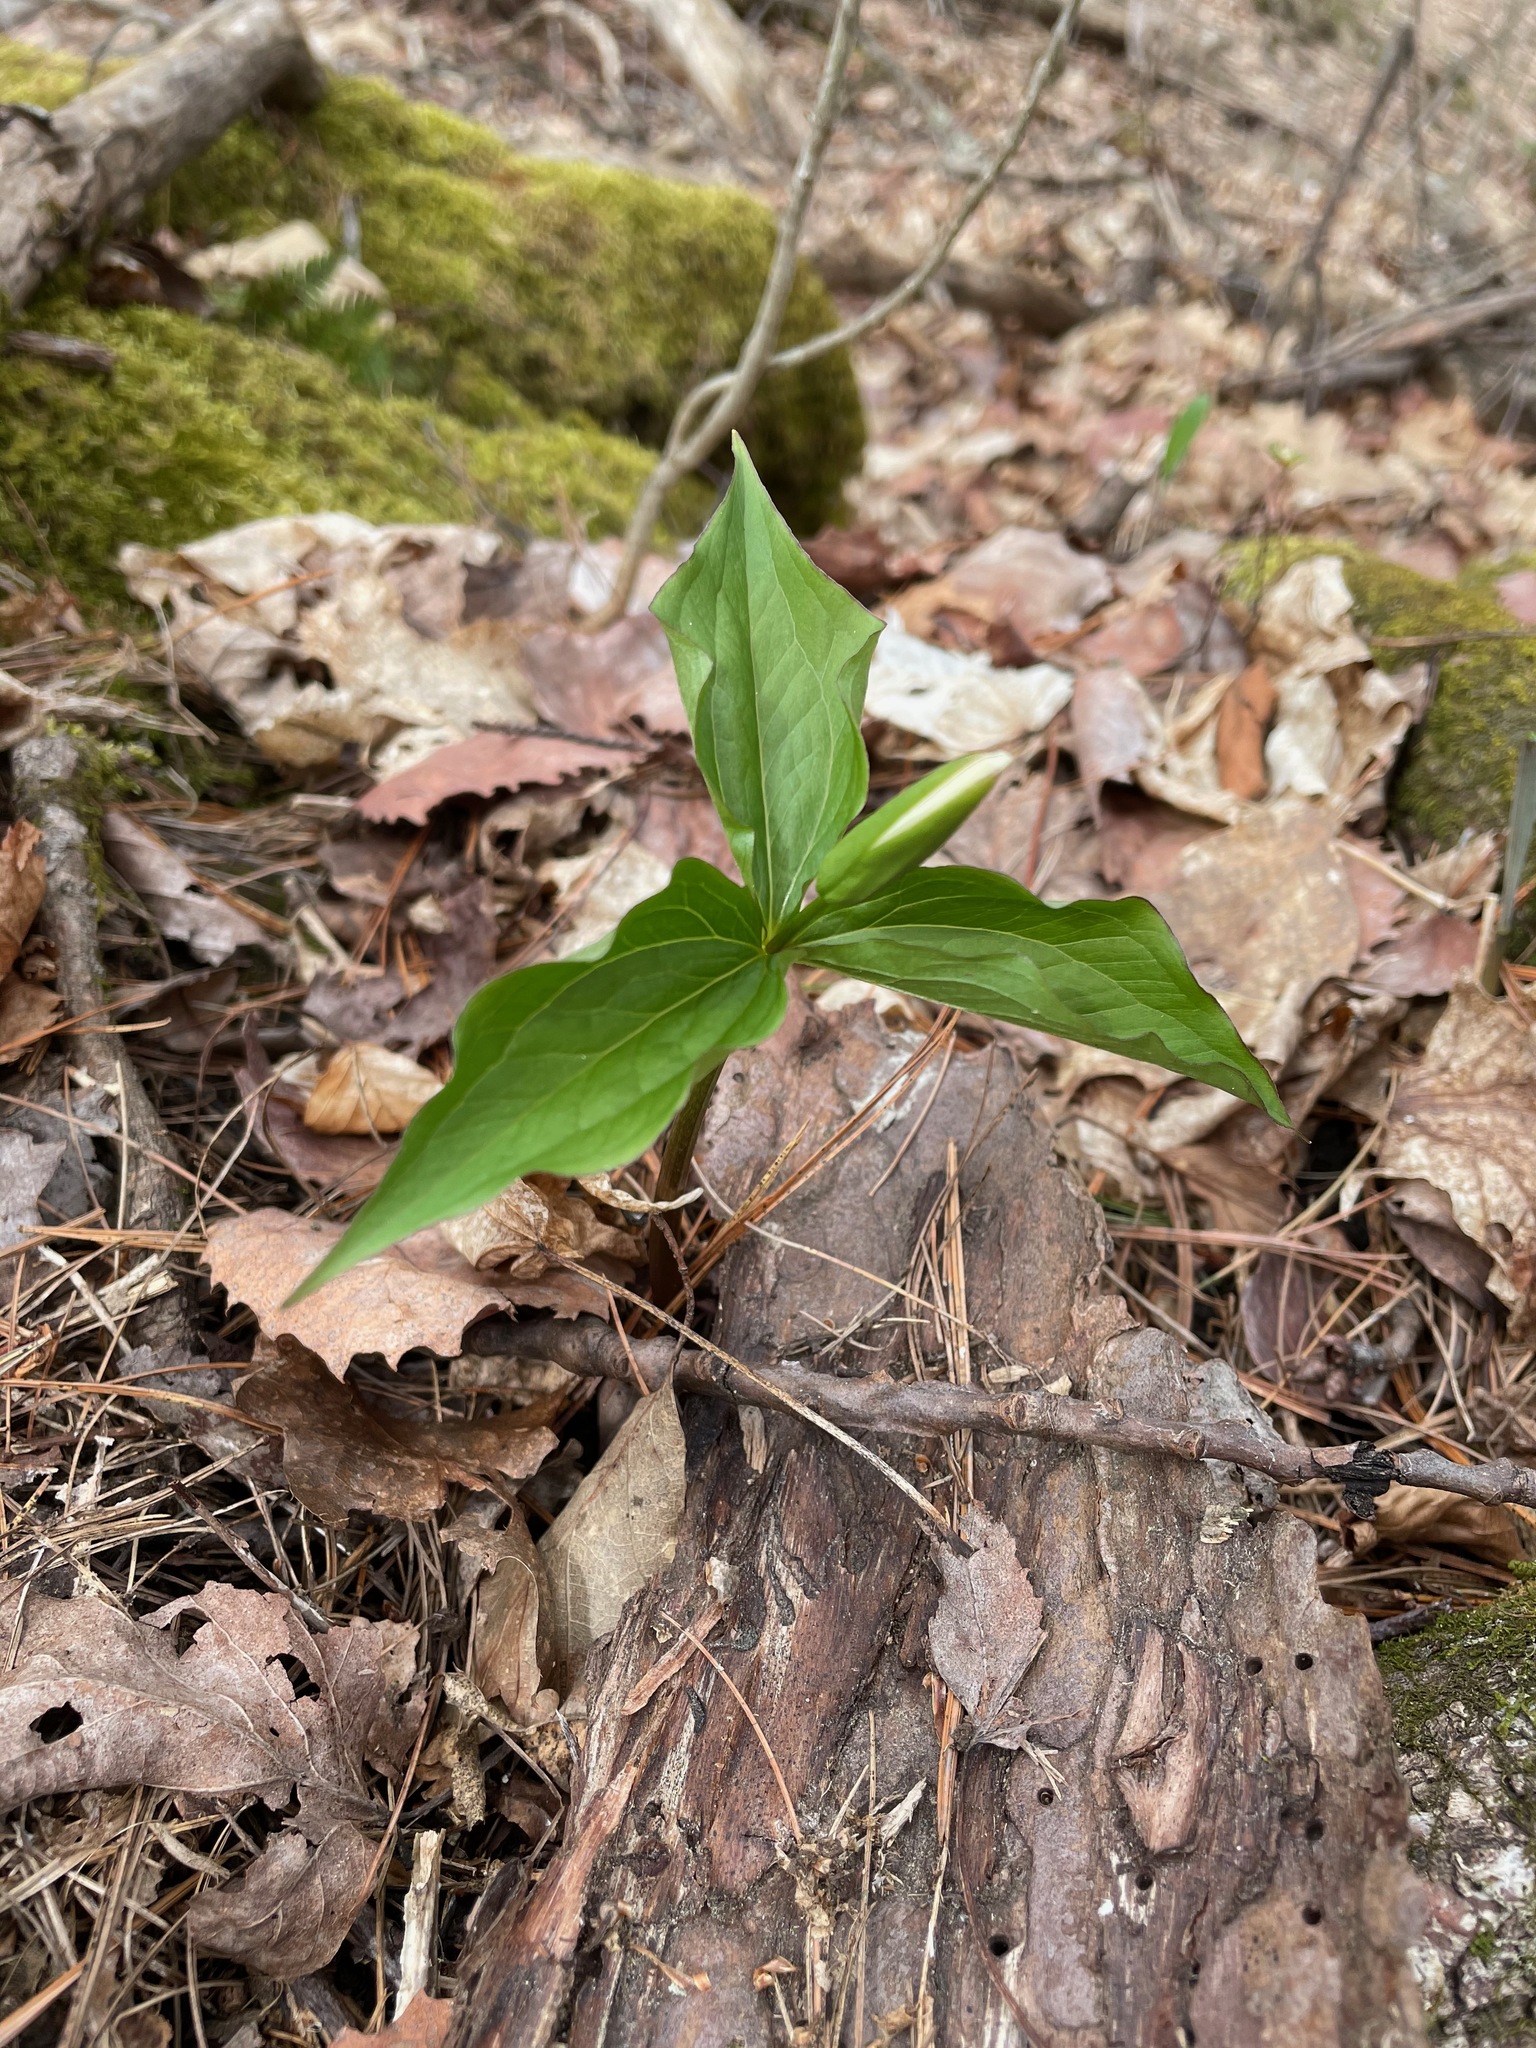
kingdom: Plantae
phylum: Tracheophyta
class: Liliopsida
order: Liliales
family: Melanthiaceae
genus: Trillium
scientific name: Trillium grandiflorum
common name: Great white trillium
